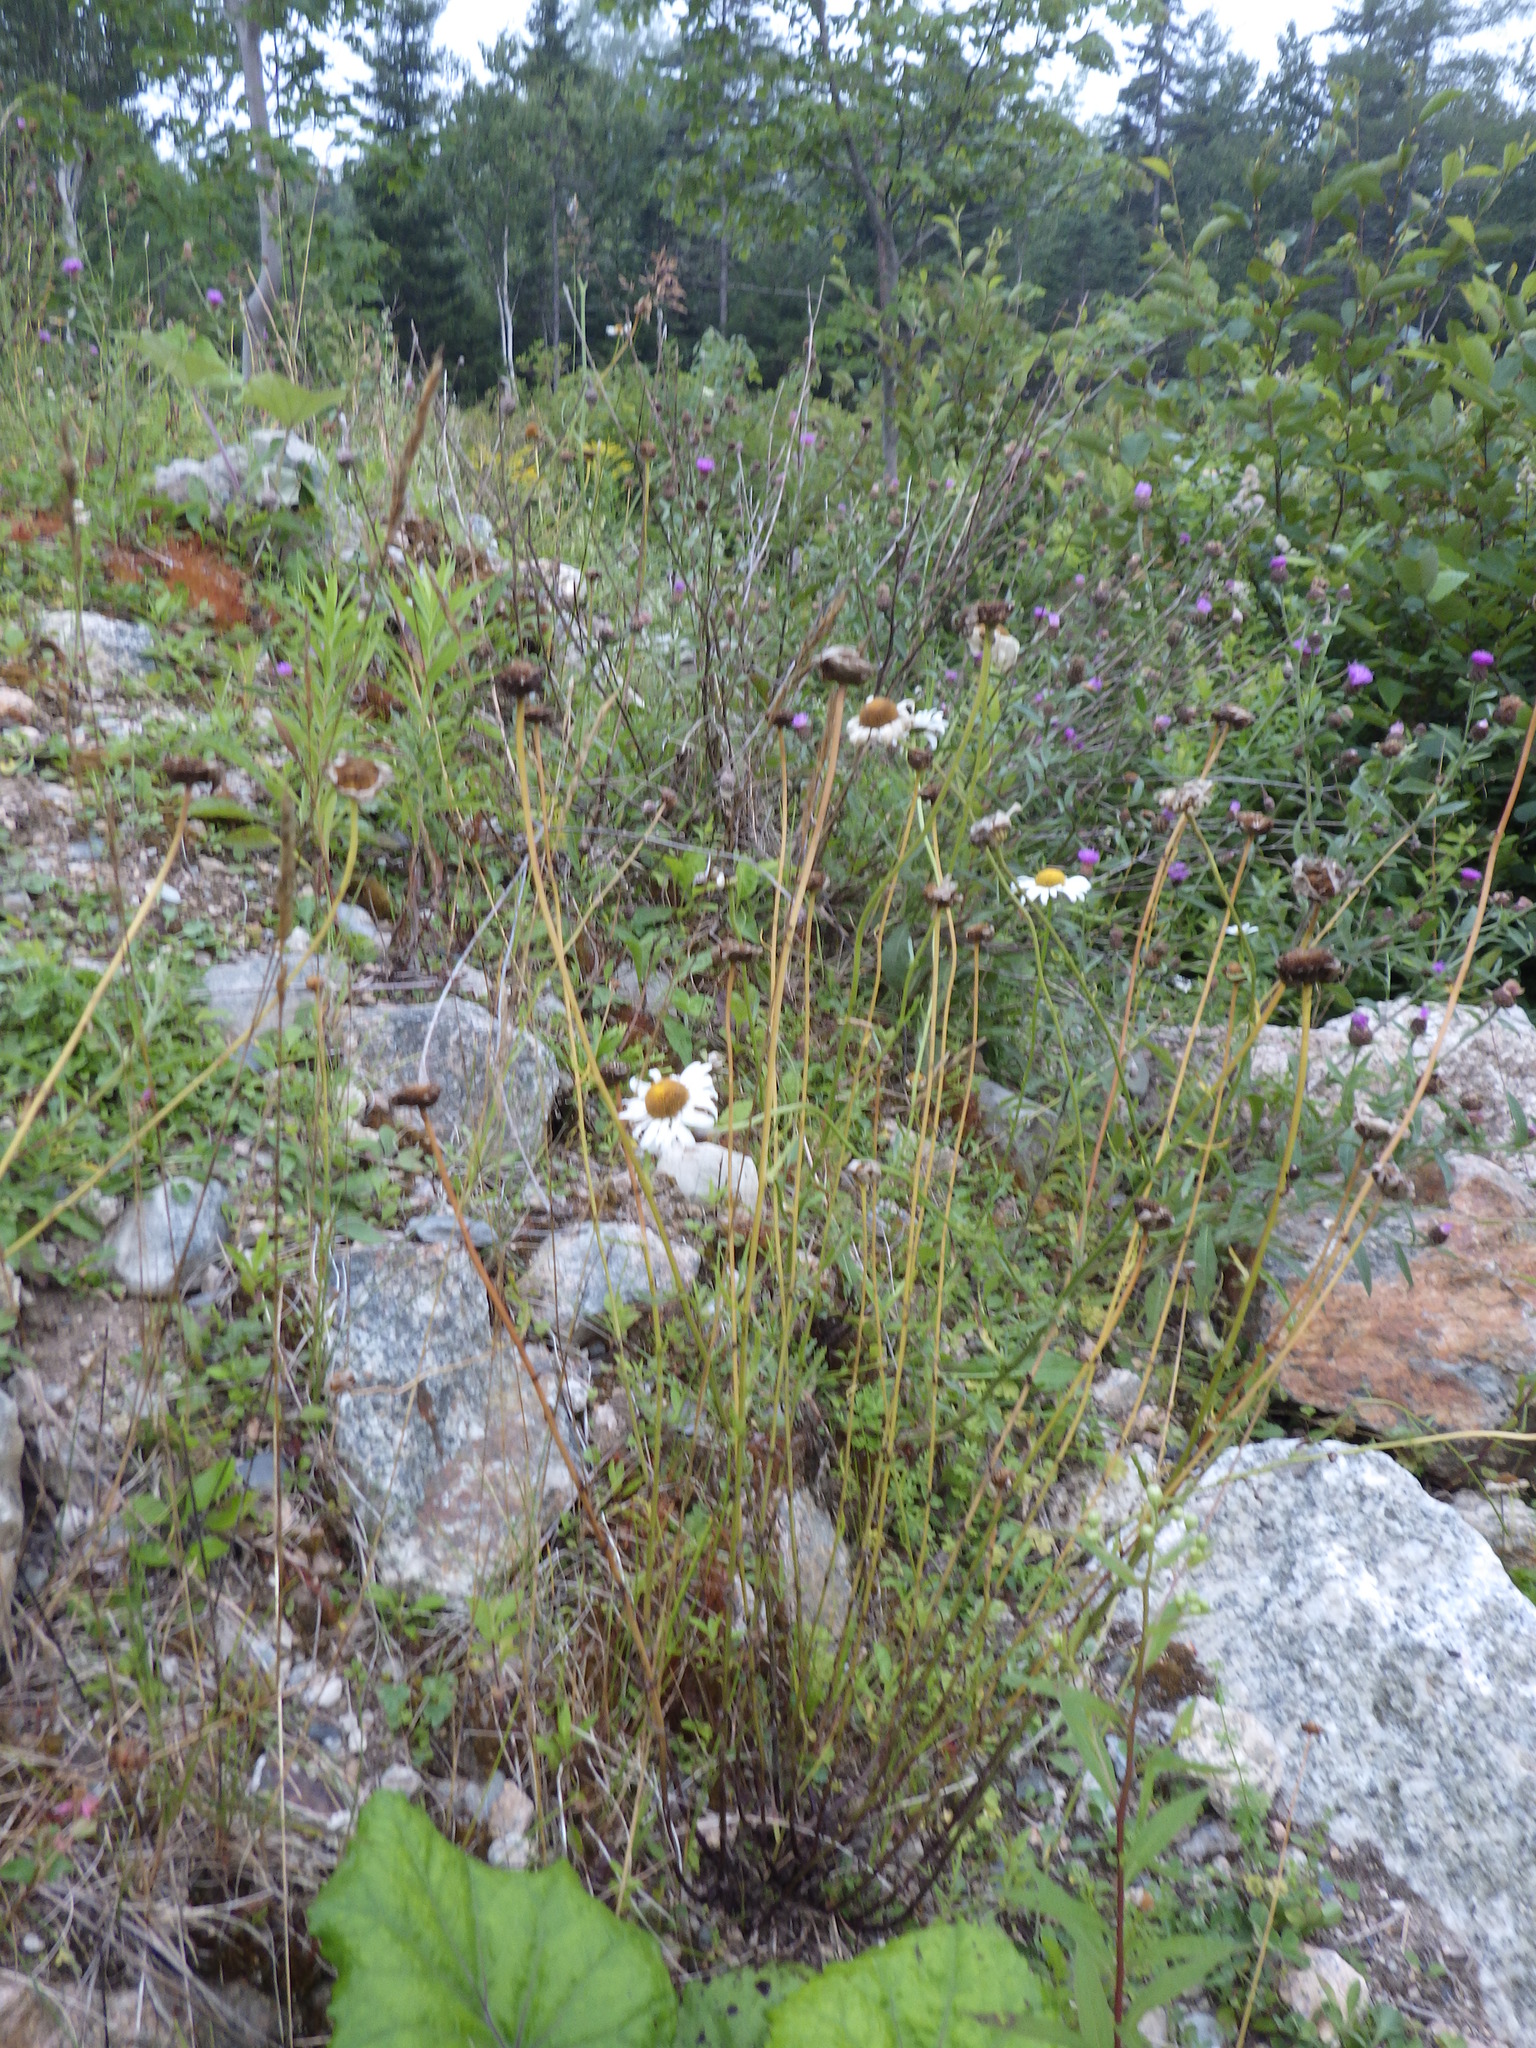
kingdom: Plantae
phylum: Tracheophyta
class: Magnoliopsida
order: Asterales
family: Asteraceae
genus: Leucanthemum
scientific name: Leucanthemum vulgare
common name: Oxeye daisy
